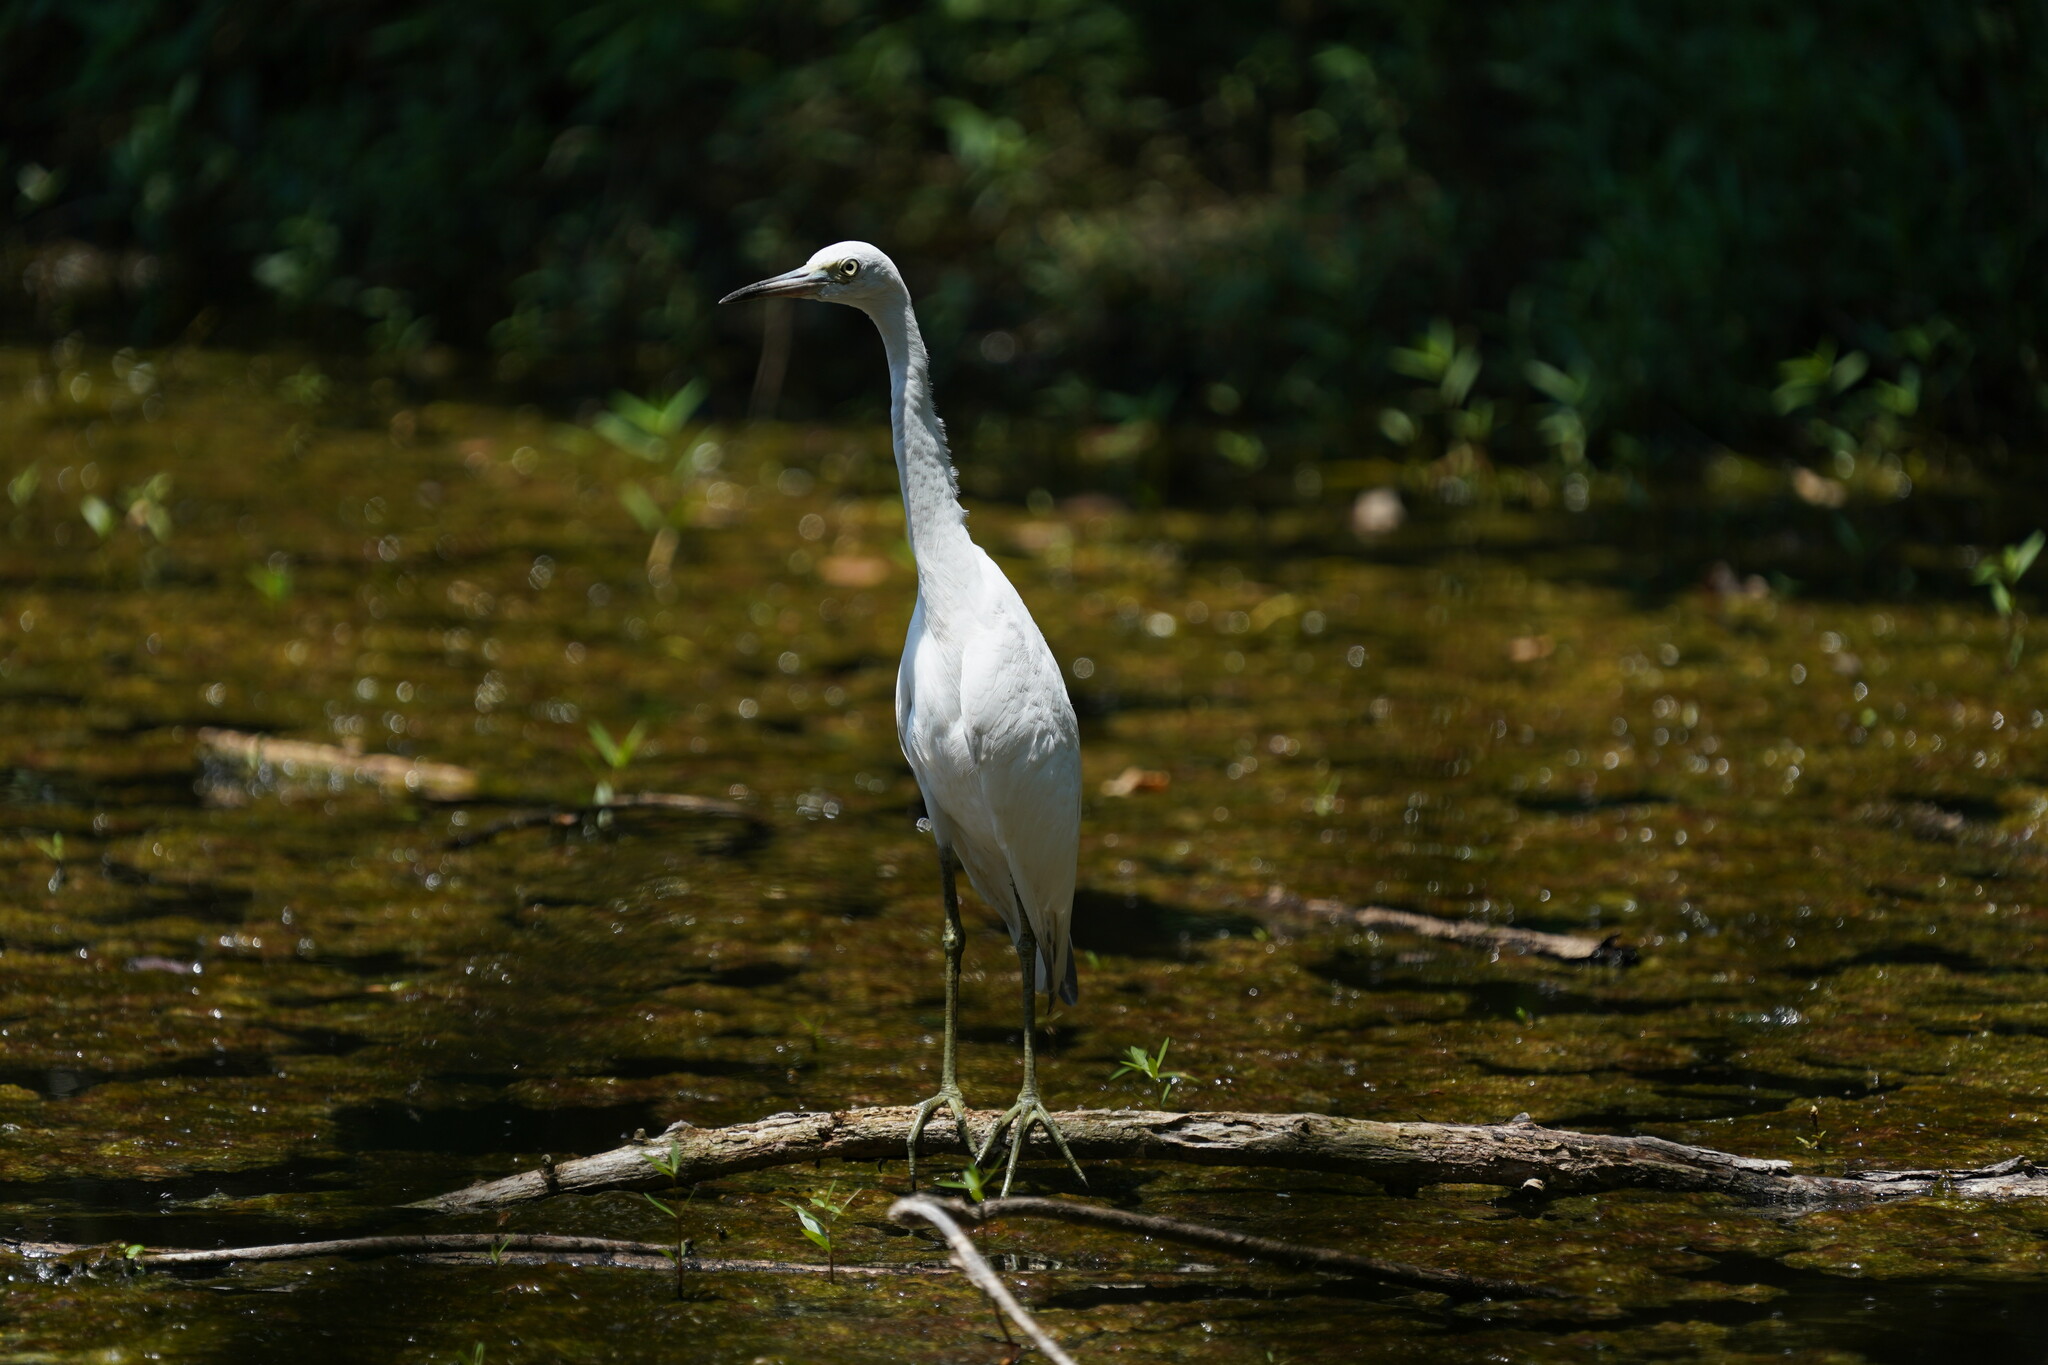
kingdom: Animalia
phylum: Chordata
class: Aves
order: Pelecaniformes
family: Ardeidae
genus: Egretta
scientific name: Egretta caerulea
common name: Little blue heron
